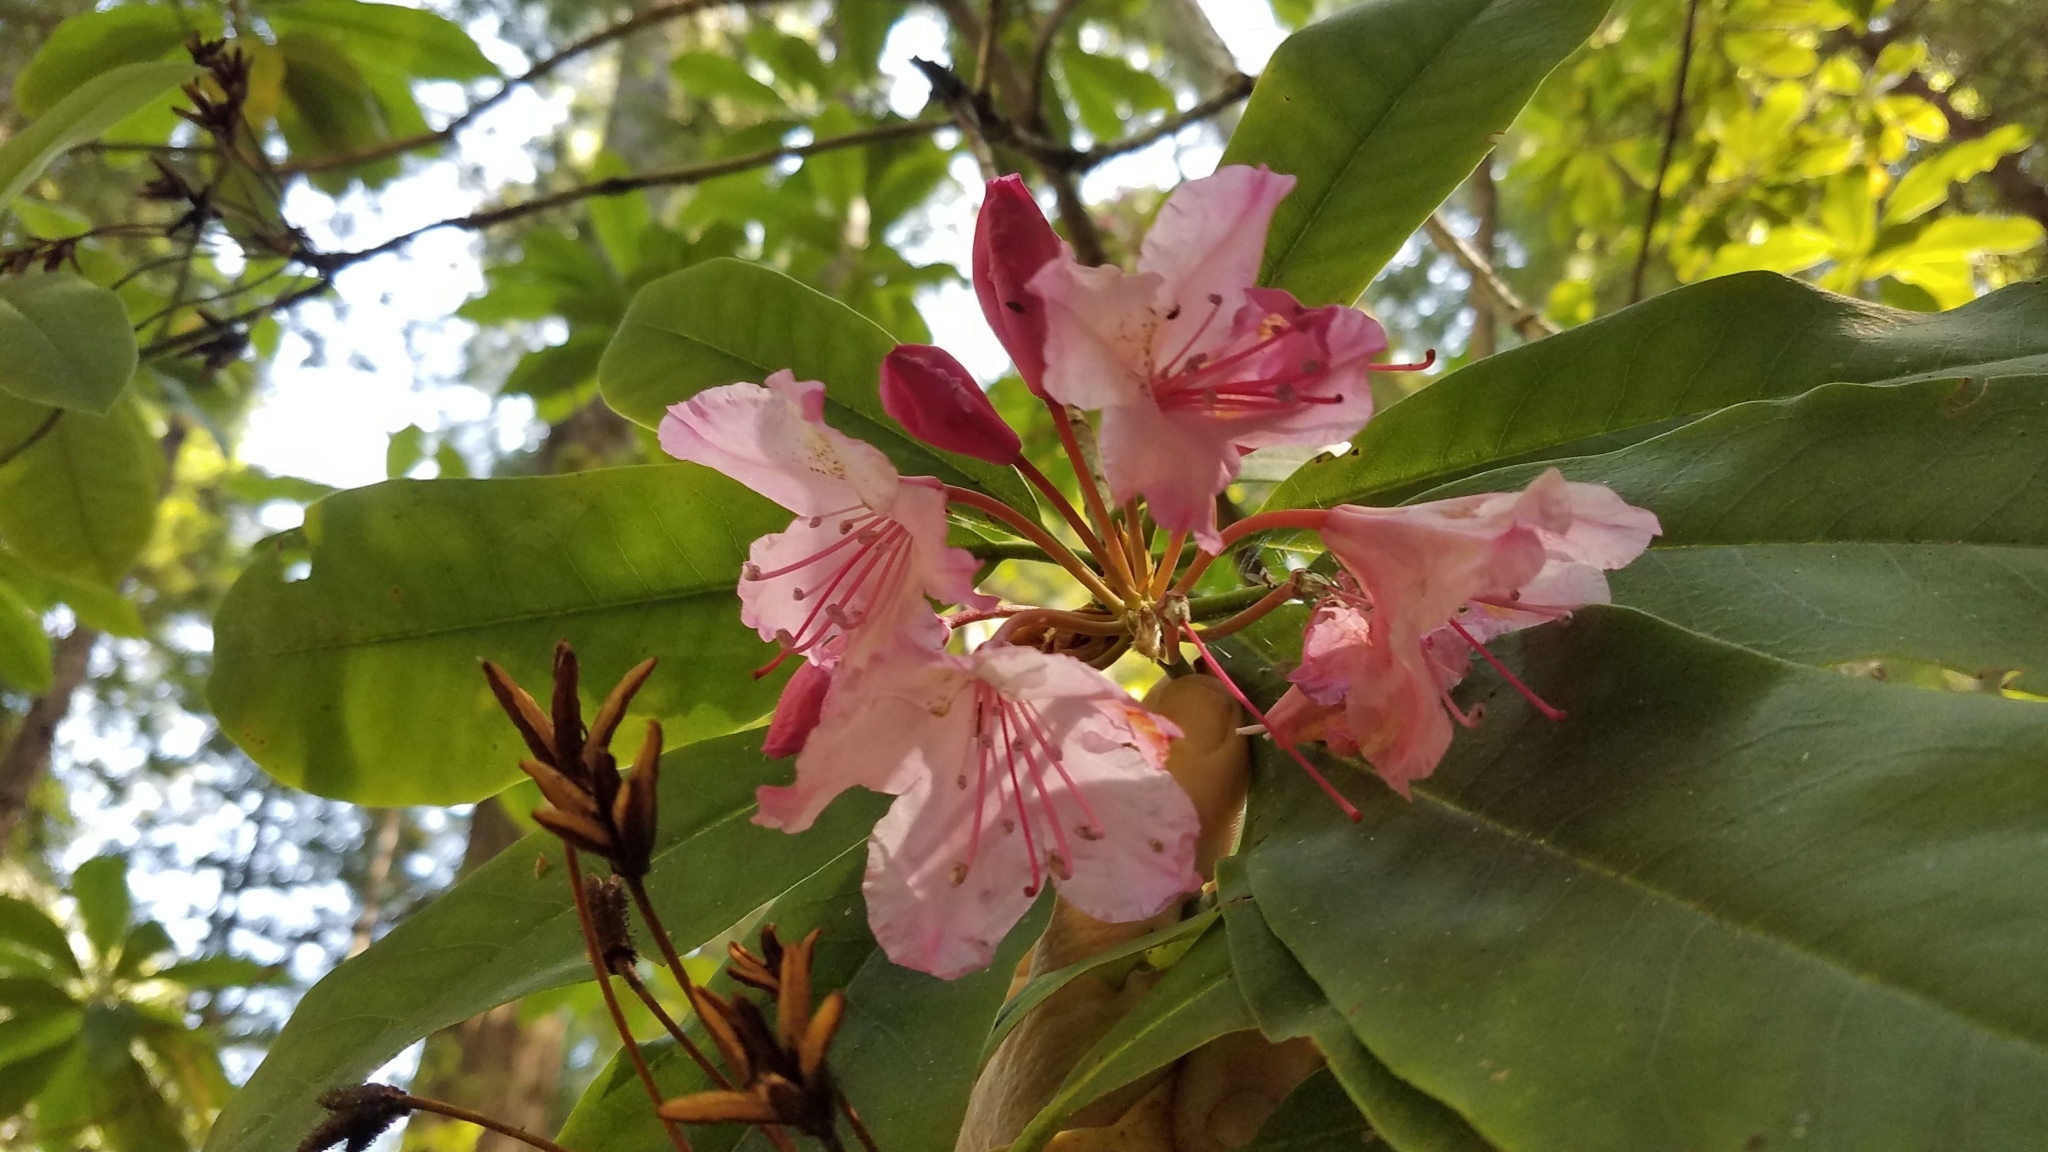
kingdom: Plantae
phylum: Tracheophyta
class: Magnoliopsida
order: Ericales
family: Ericaceae
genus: Rhododendron
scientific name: Rhododendron macrophyllum
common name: California rose bay
